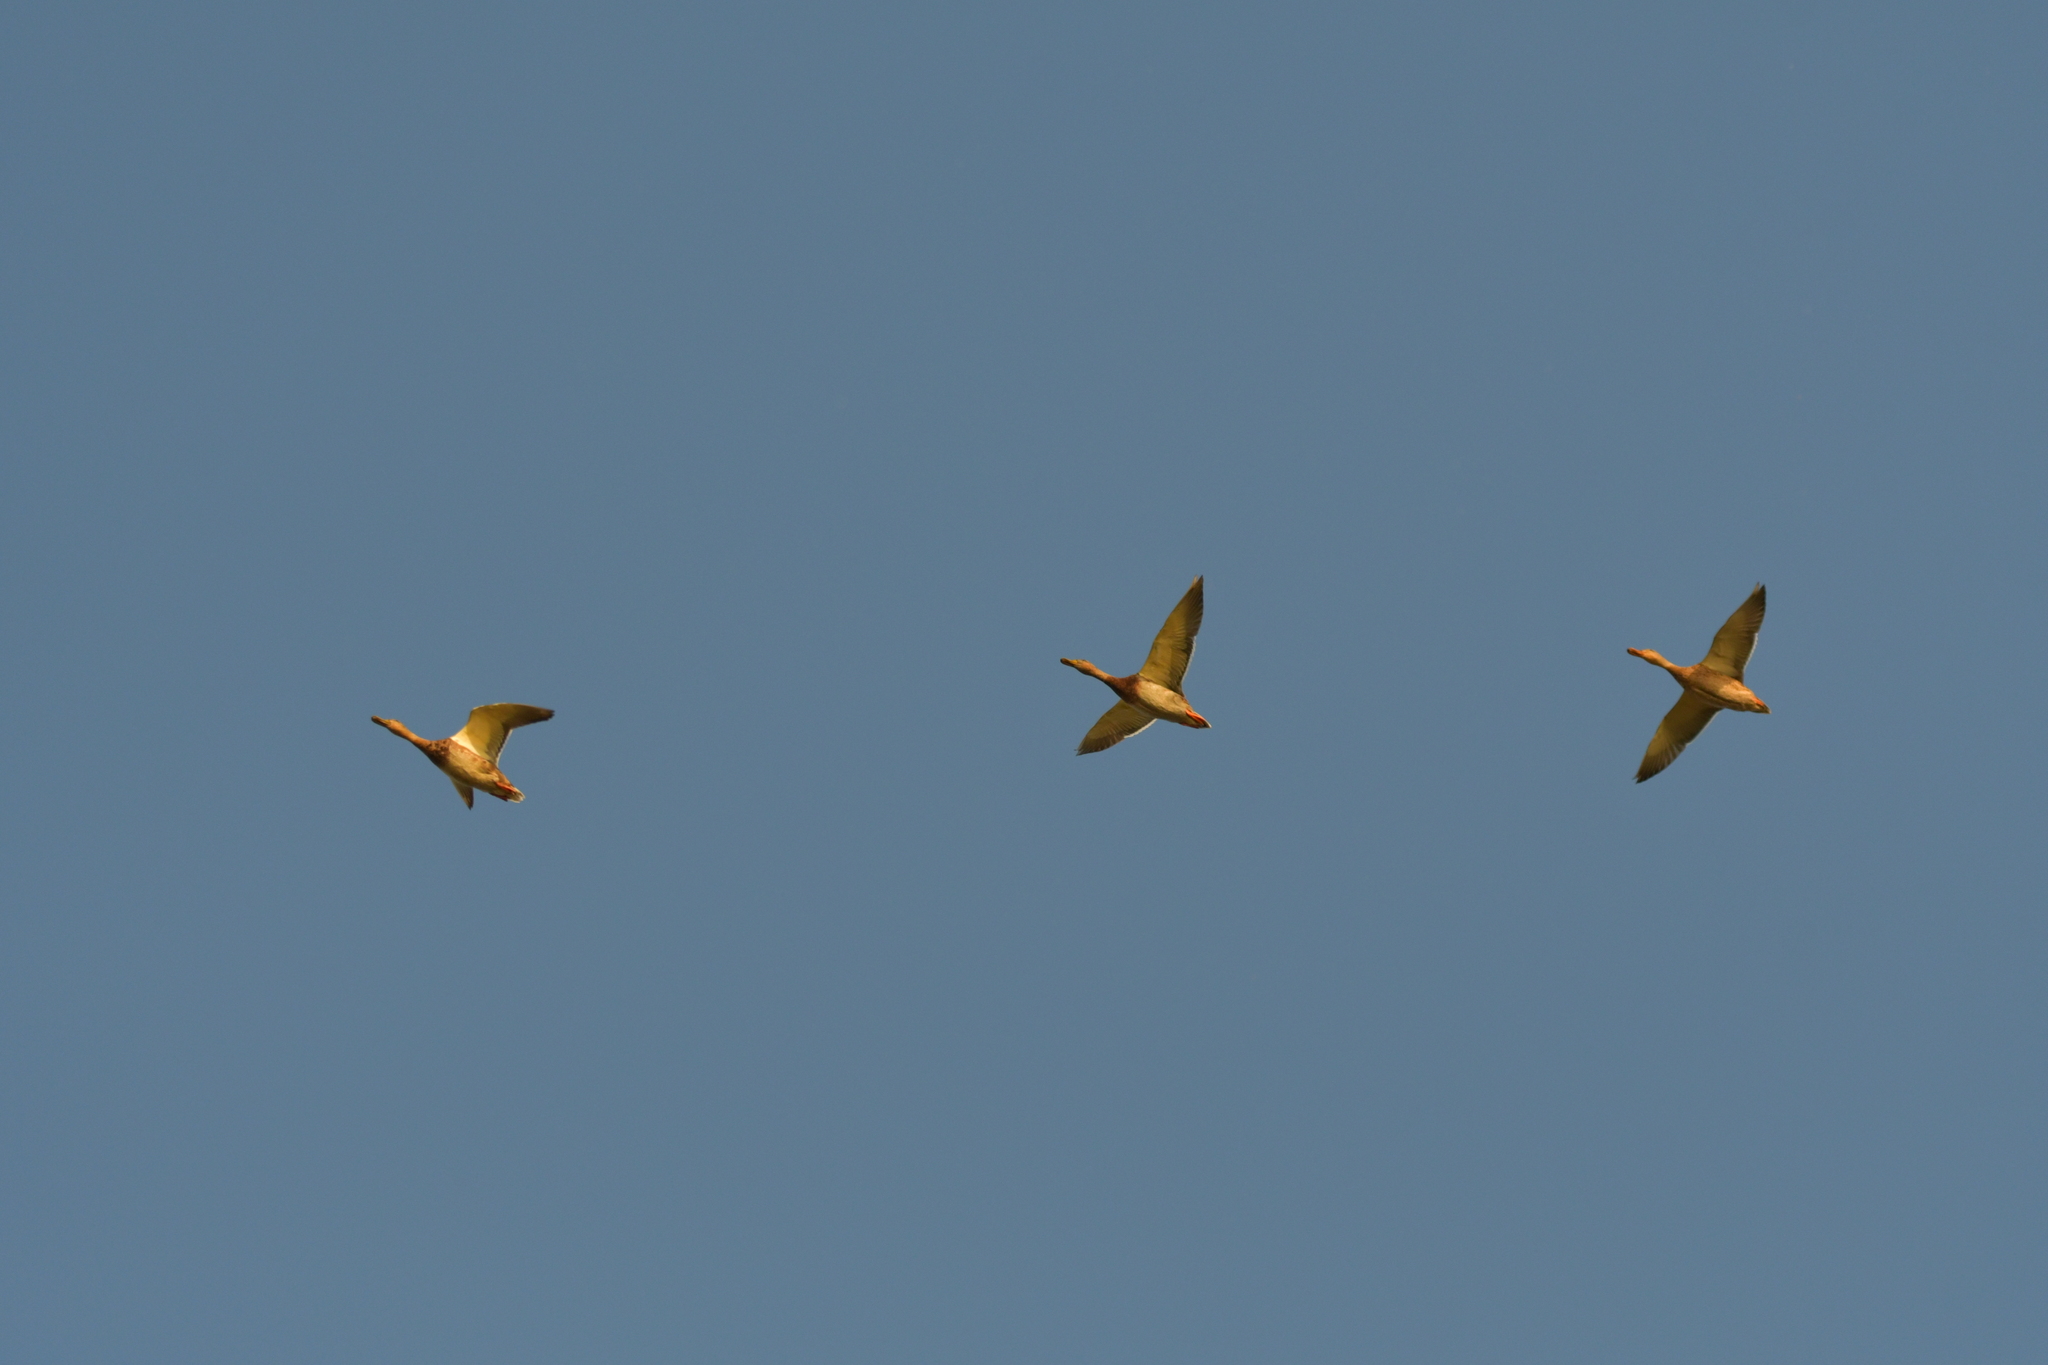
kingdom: Animalia
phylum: Chordata
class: Aves
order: Anseriformes
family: Anatidae
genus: Anas
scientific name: Anas platyrhynchos
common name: Mallard
